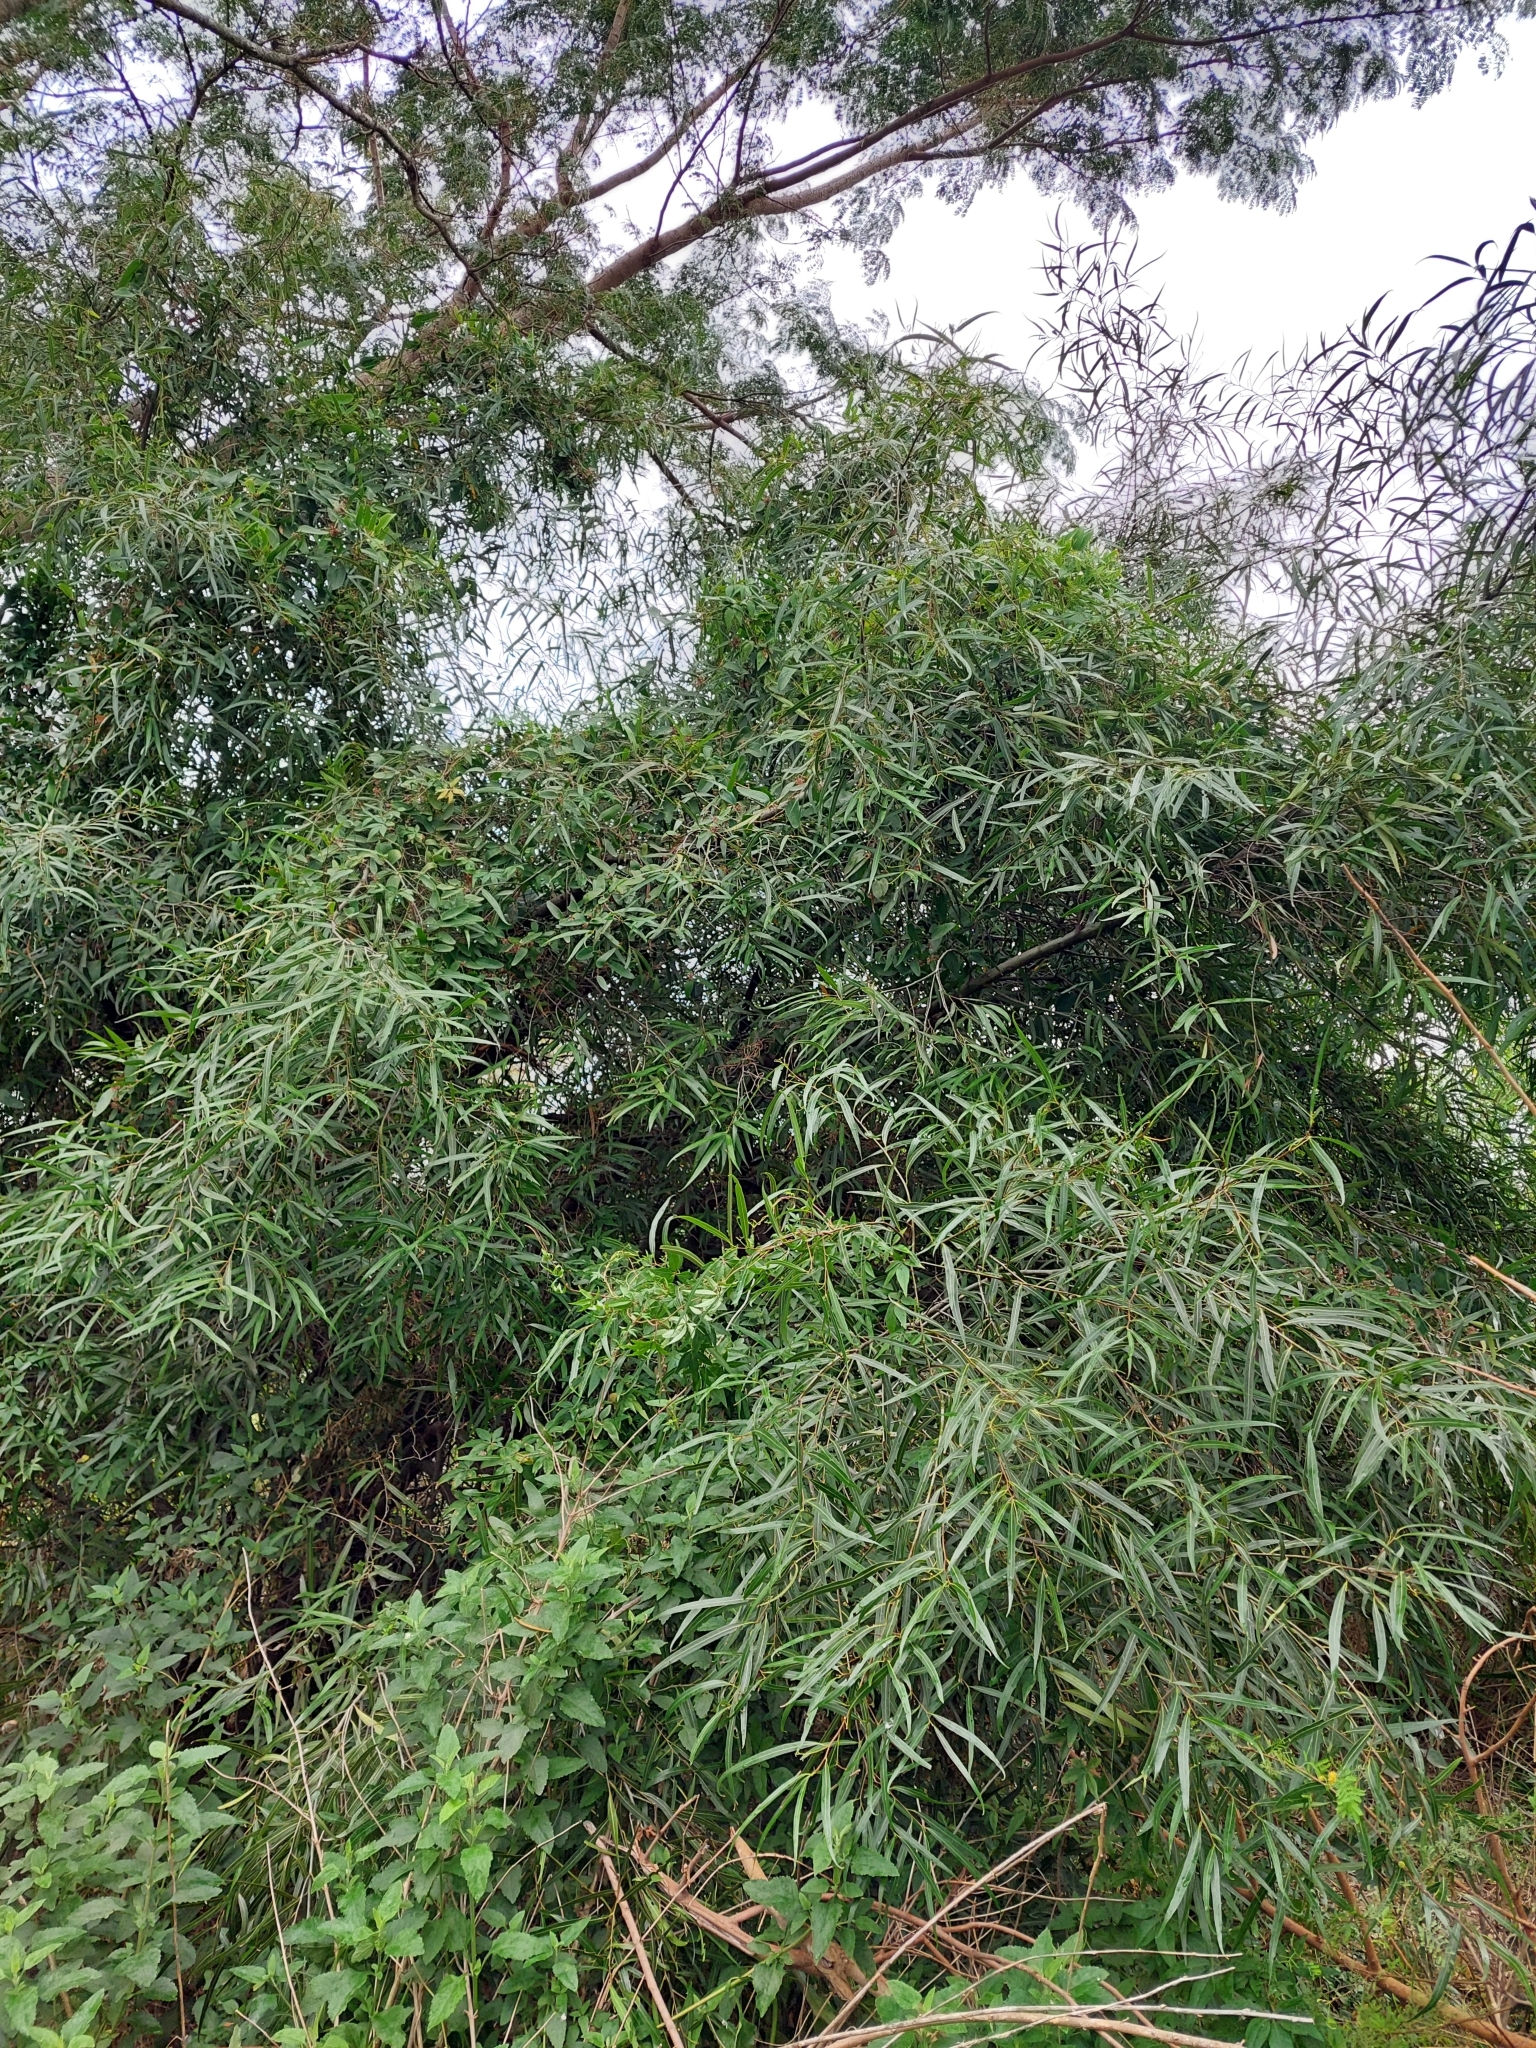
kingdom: Plantae
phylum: Tracheophyta
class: Magnoliopsida
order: Laurales
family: Lauraceae
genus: Nectandra
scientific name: Nectandra angustifolia
